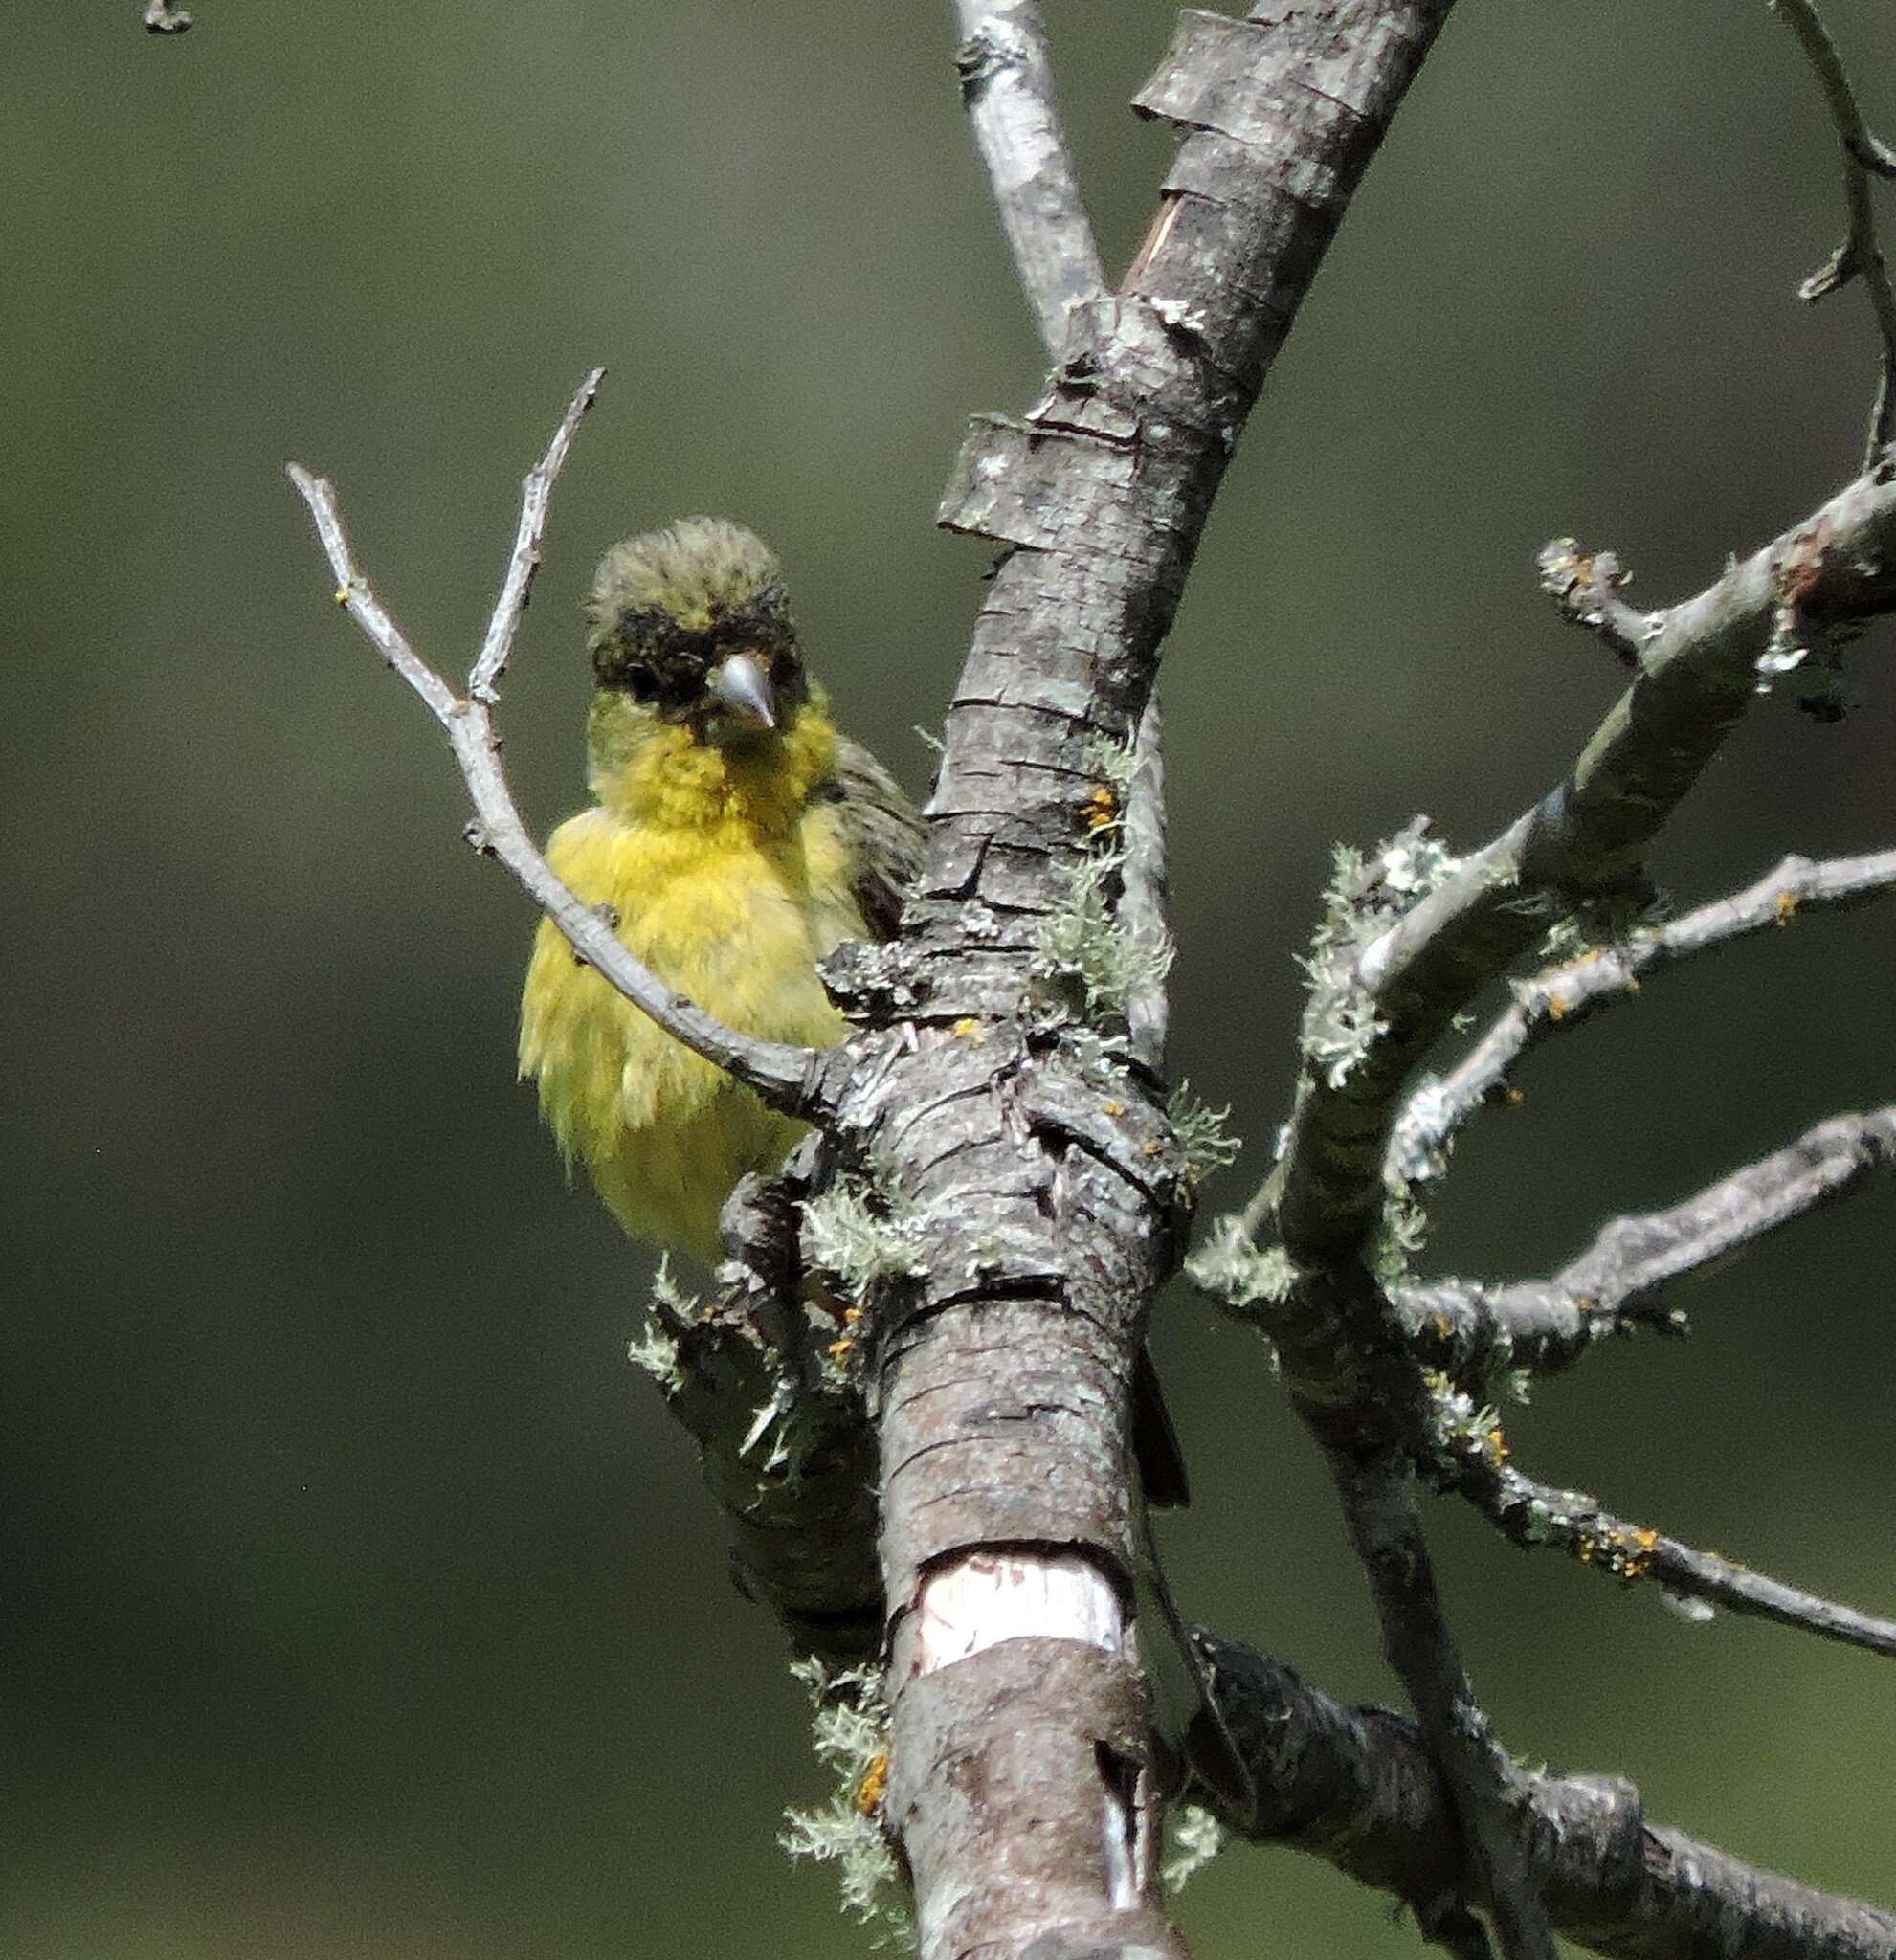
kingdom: Animalia
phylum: Chordata
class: Aves
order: Passeriformes
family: Fringillidae
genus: Spinus
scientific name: Spinus psaltria
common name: Lesser goldfinch
